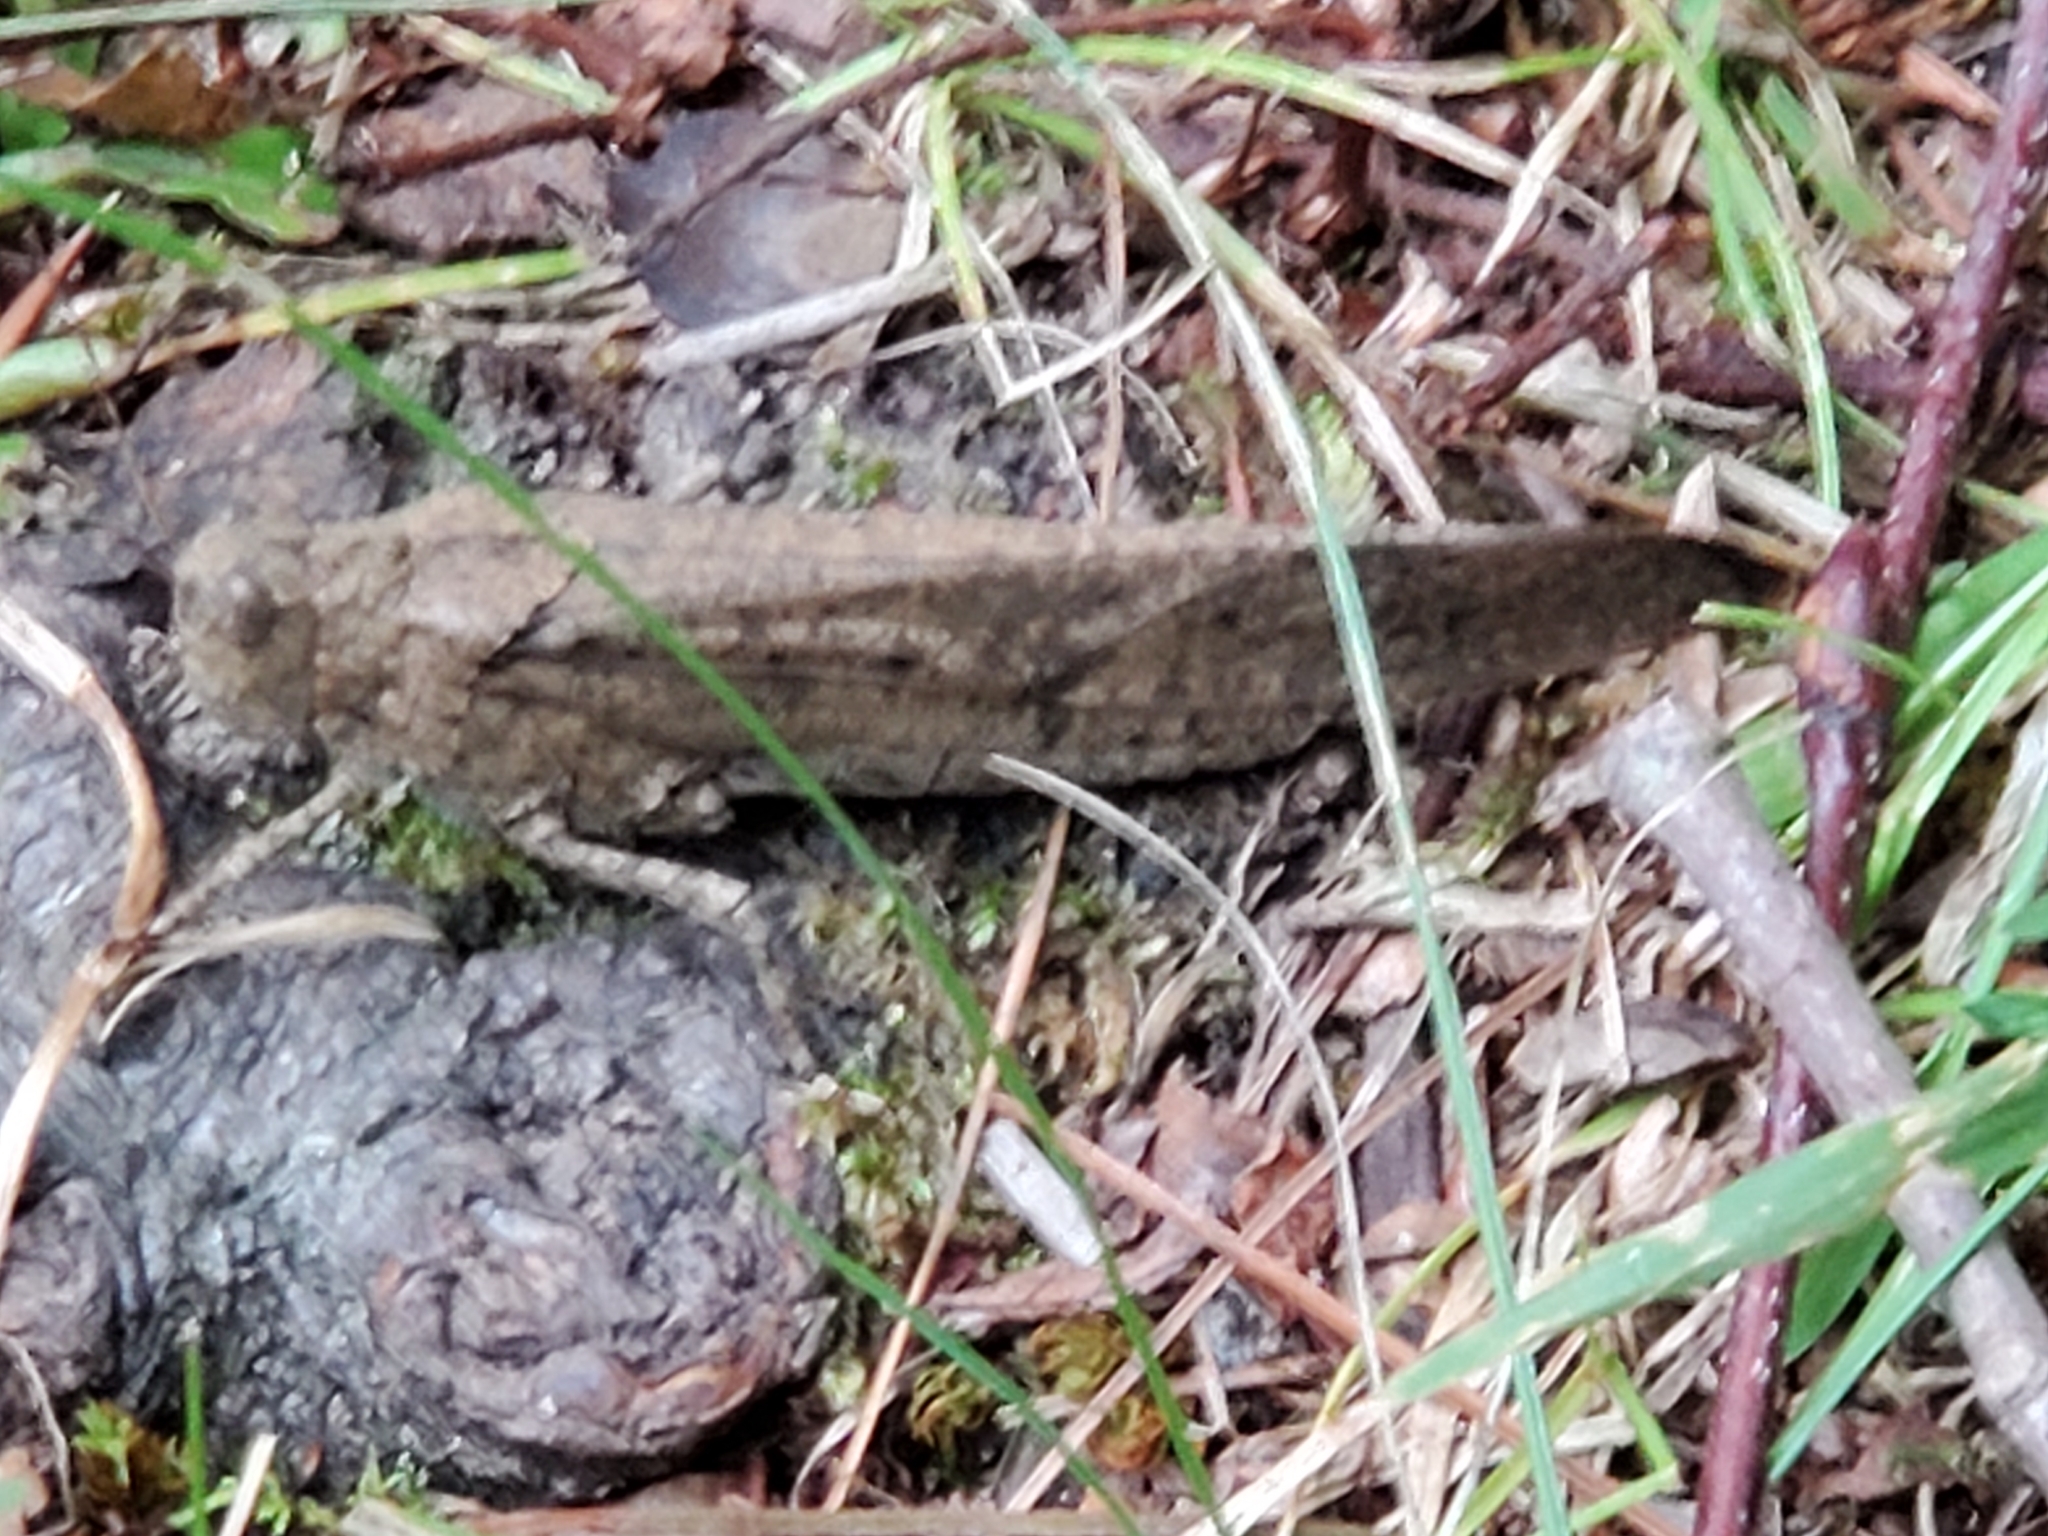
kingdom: Animalia
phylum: Arthropoda
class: Insecta
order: Orthoptera
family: Acrididae
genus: Dissosteira
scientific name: Dissosteira carolina
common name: Carolina grasshopper
